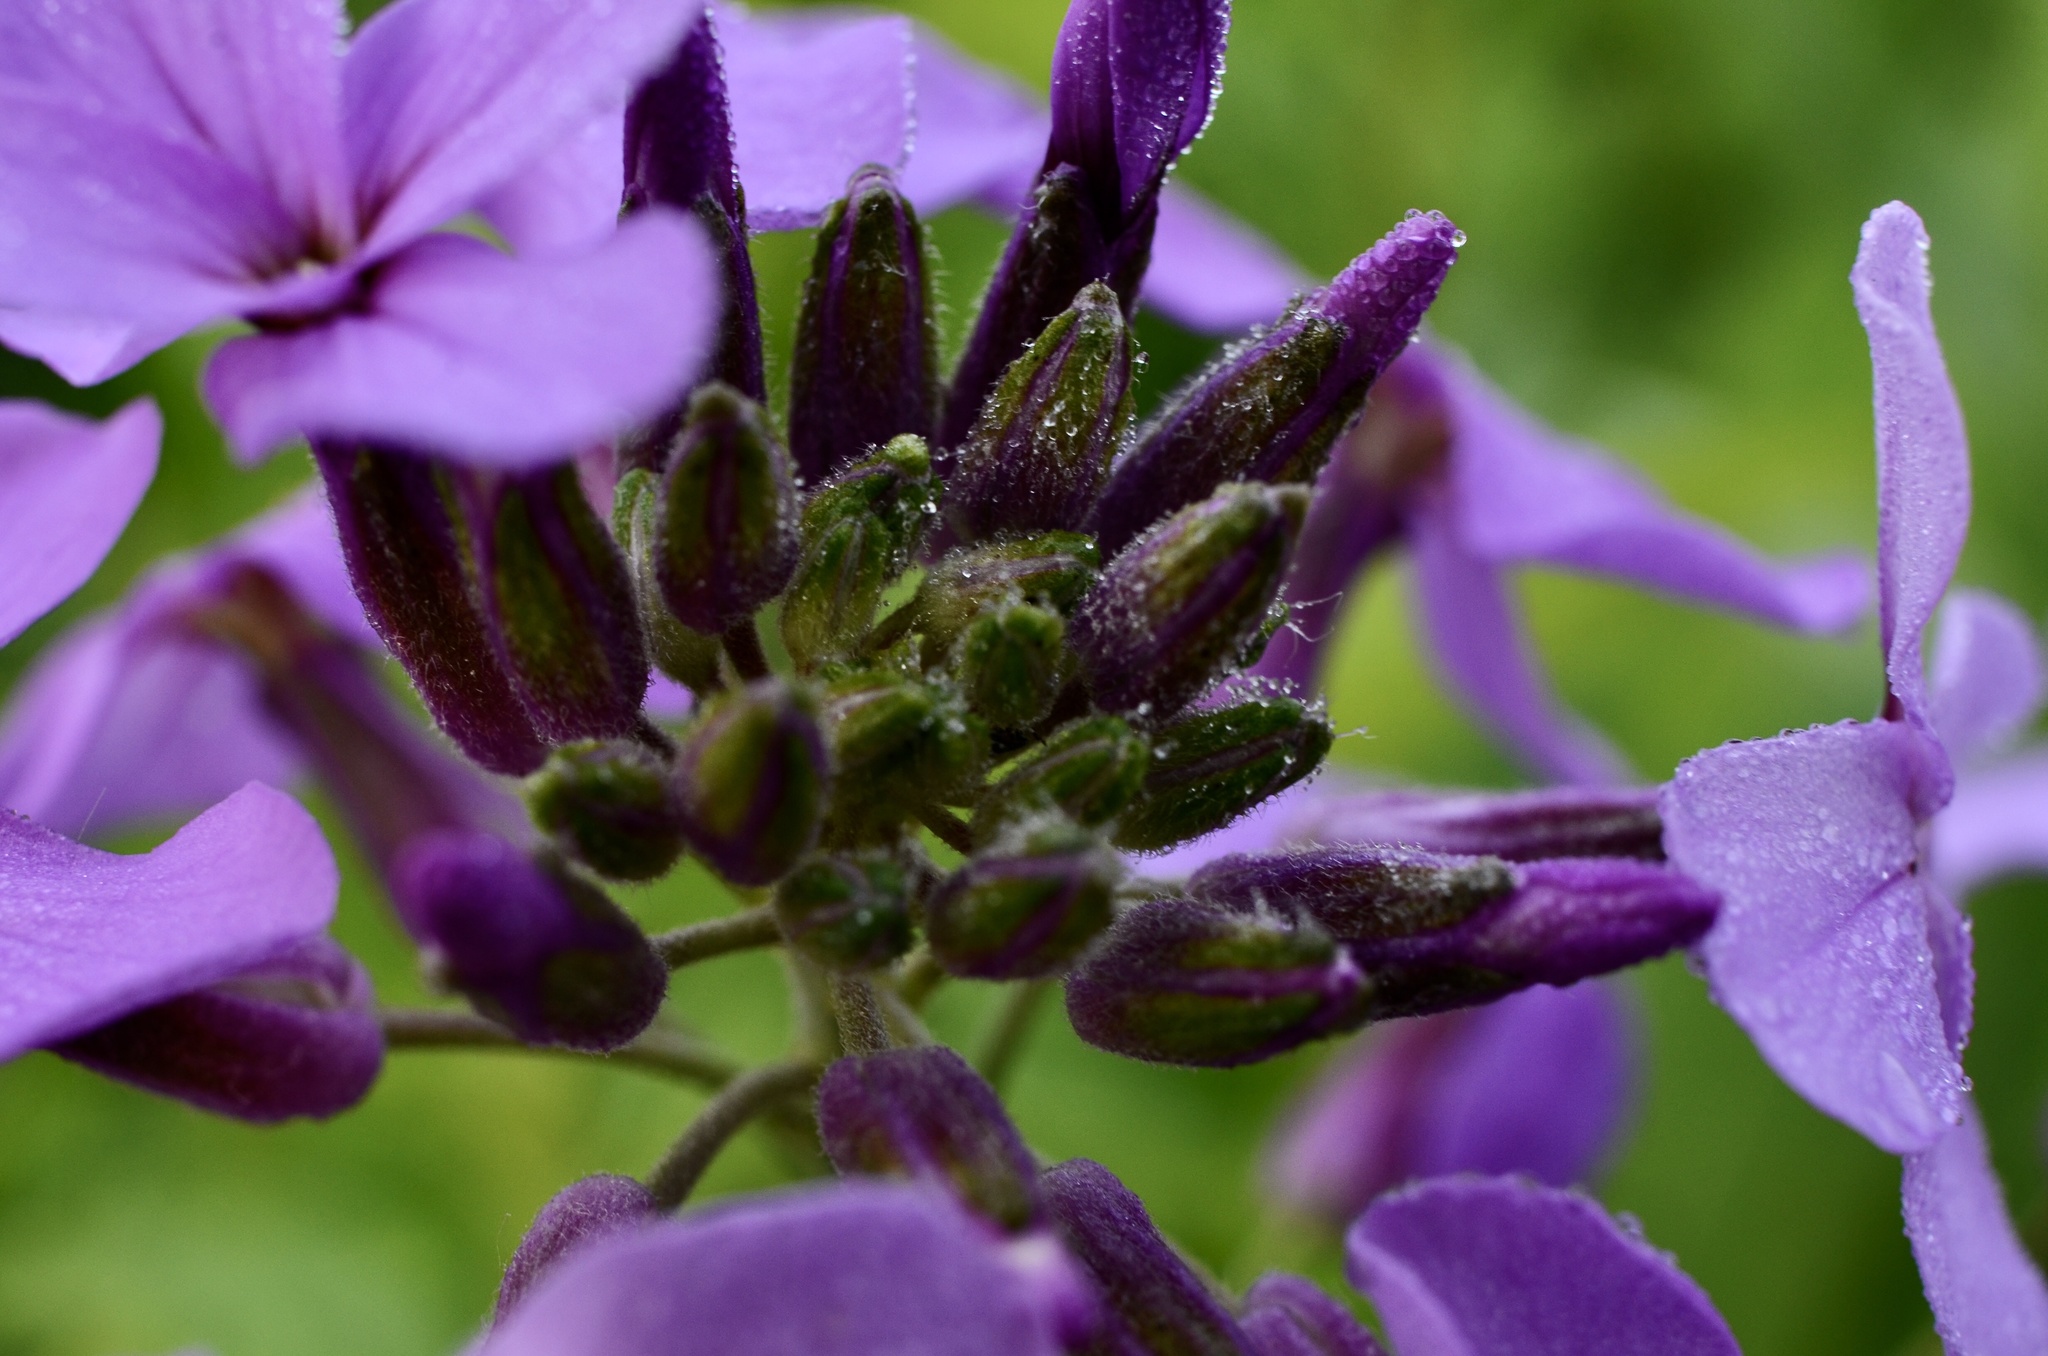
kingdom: Plantae
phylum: Tracheophyta
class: Magnoliopsida
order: Brassicales
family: Brassicaceae
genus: Hesperis
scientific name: Hesperis matronalis
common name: Dame's-violet
